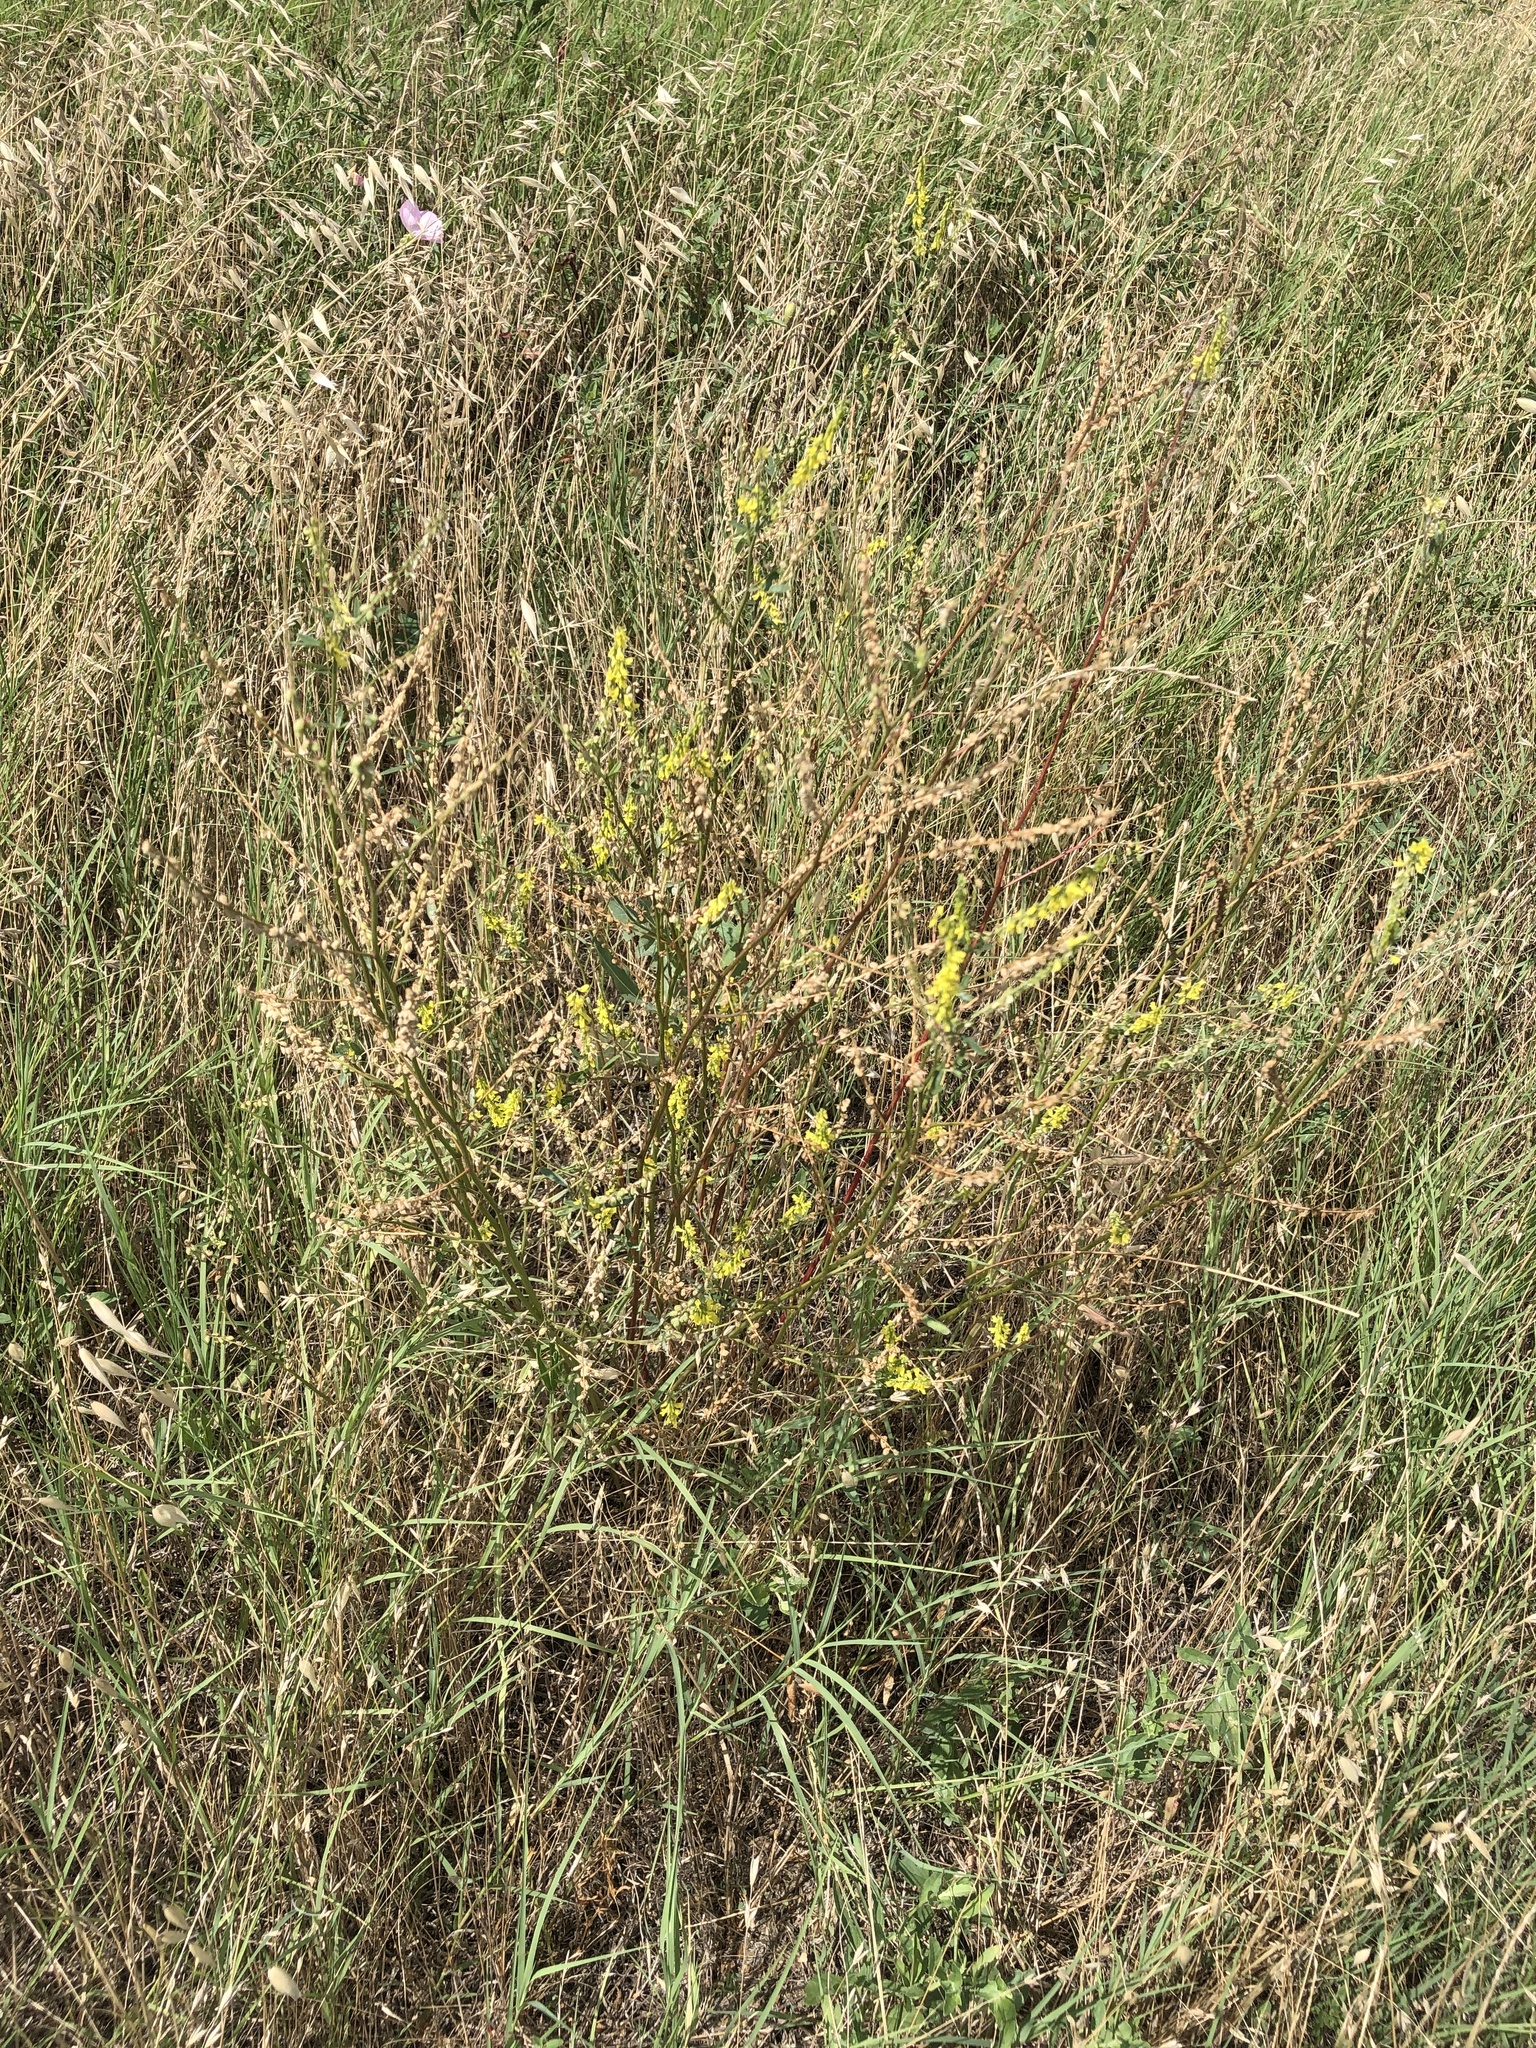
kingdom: Plantae
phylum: Tracheophyta
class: Magnoliopsida
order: Fabales
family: Fabaceae
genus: Melilotus
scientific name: Melilotus officinalis
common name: Sweetclover
